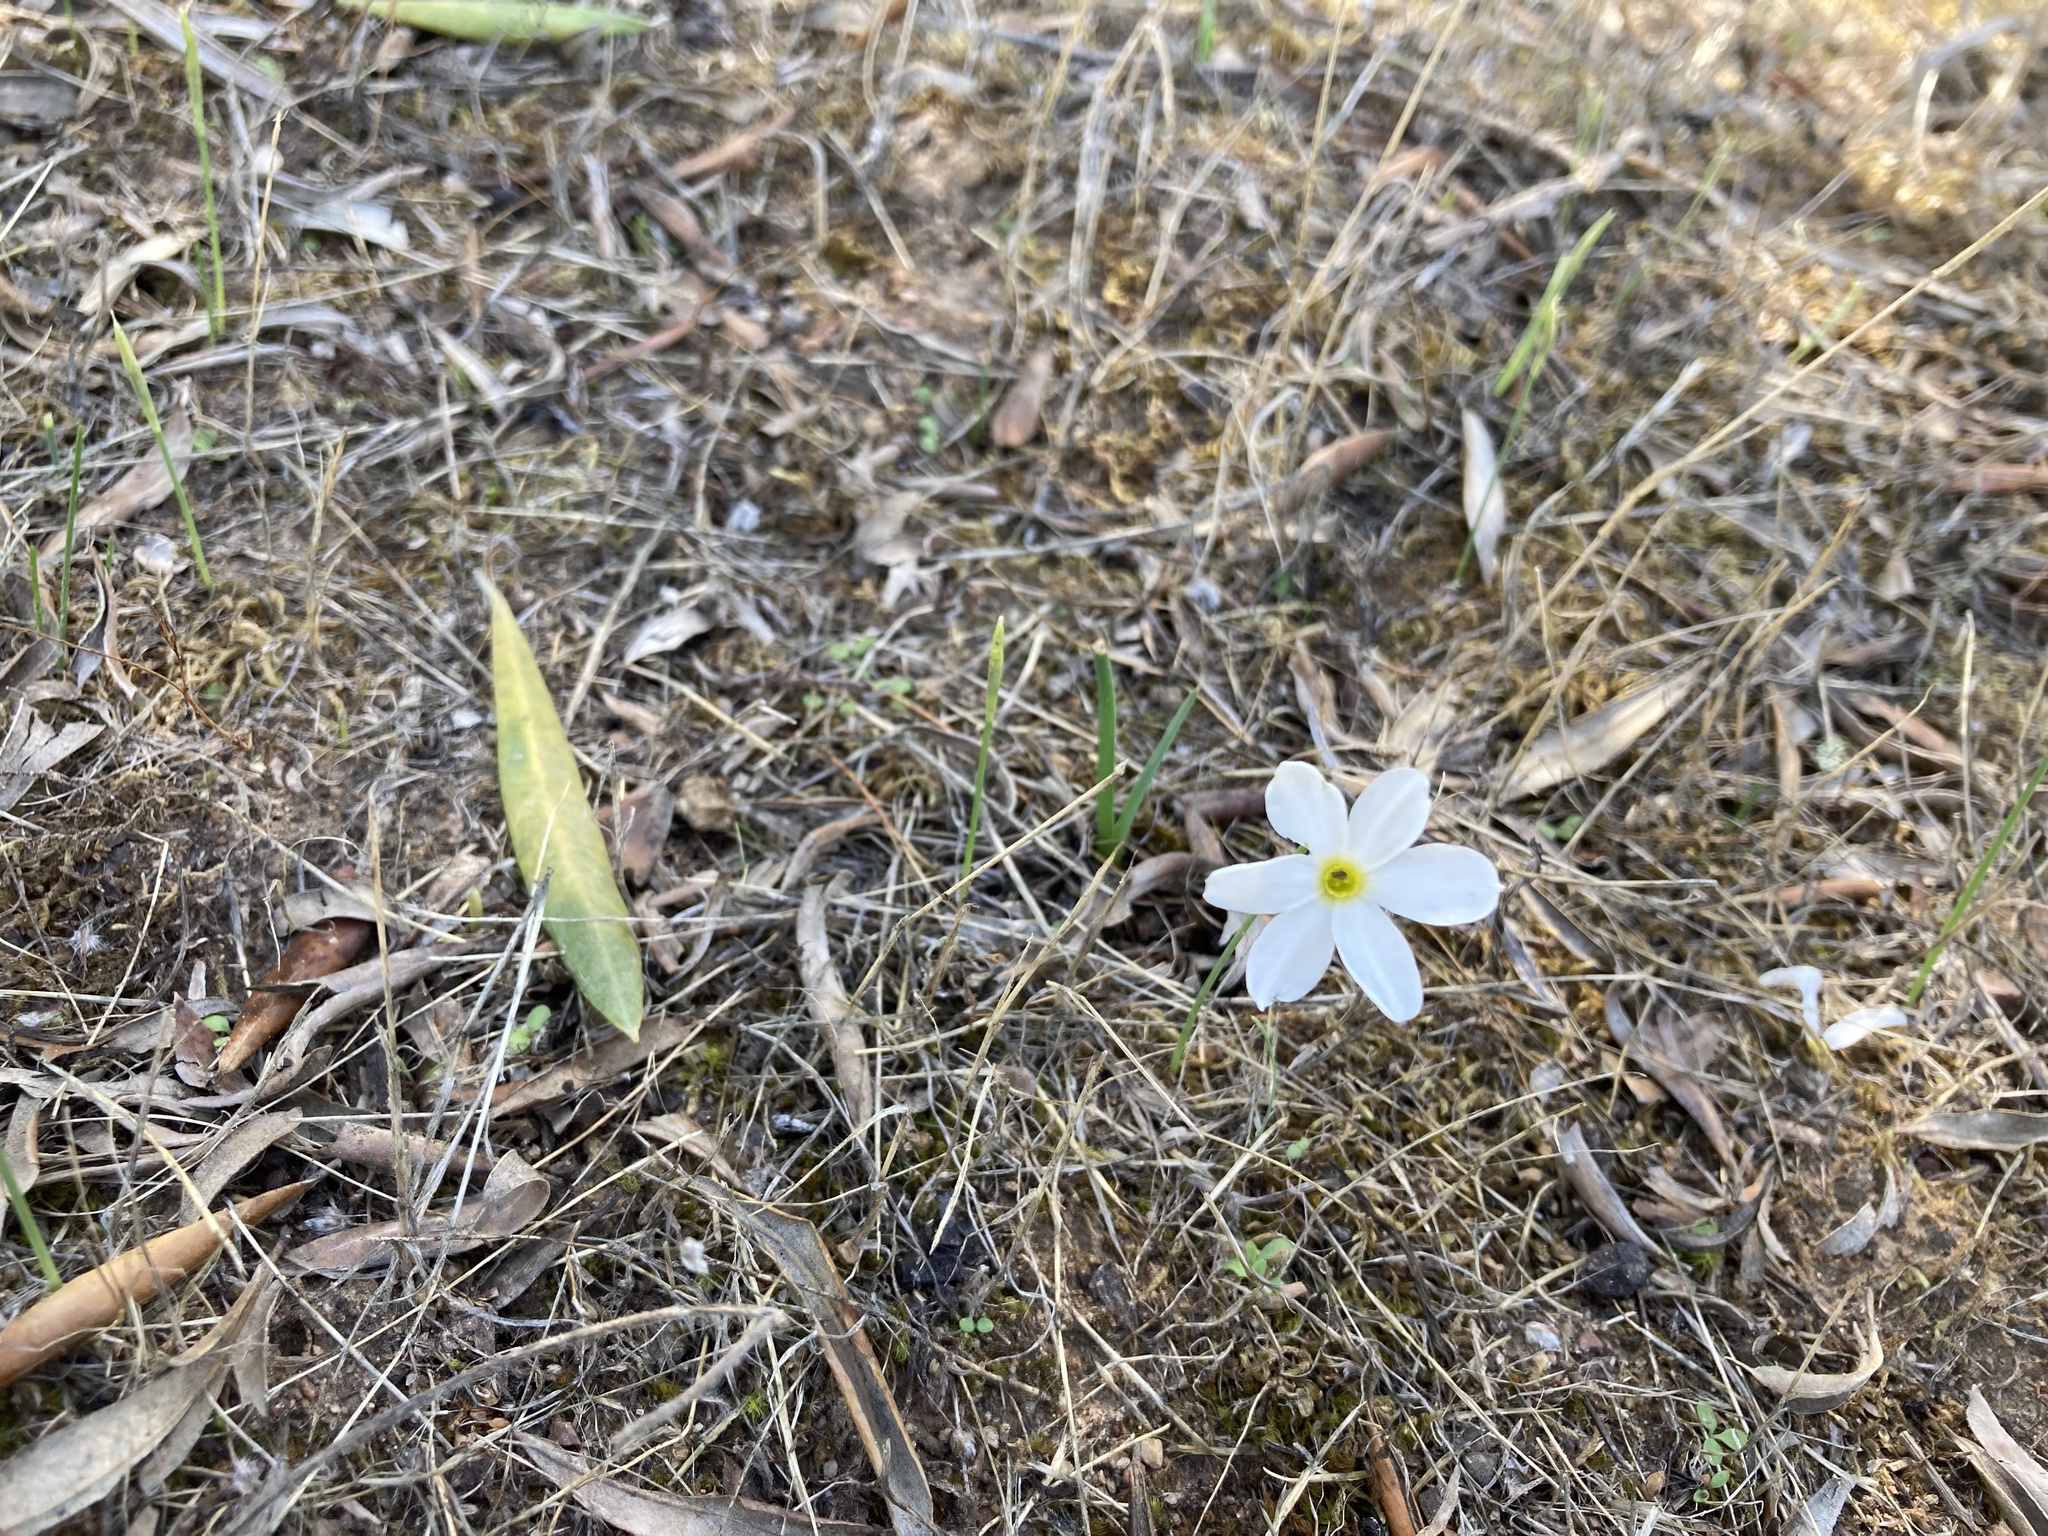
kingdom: Plantae
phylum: Tracheophyta
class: Liliopsida
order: Asparagales
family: Amaryllidaceae
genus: Narcissus
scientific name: Narcissus serotinus
